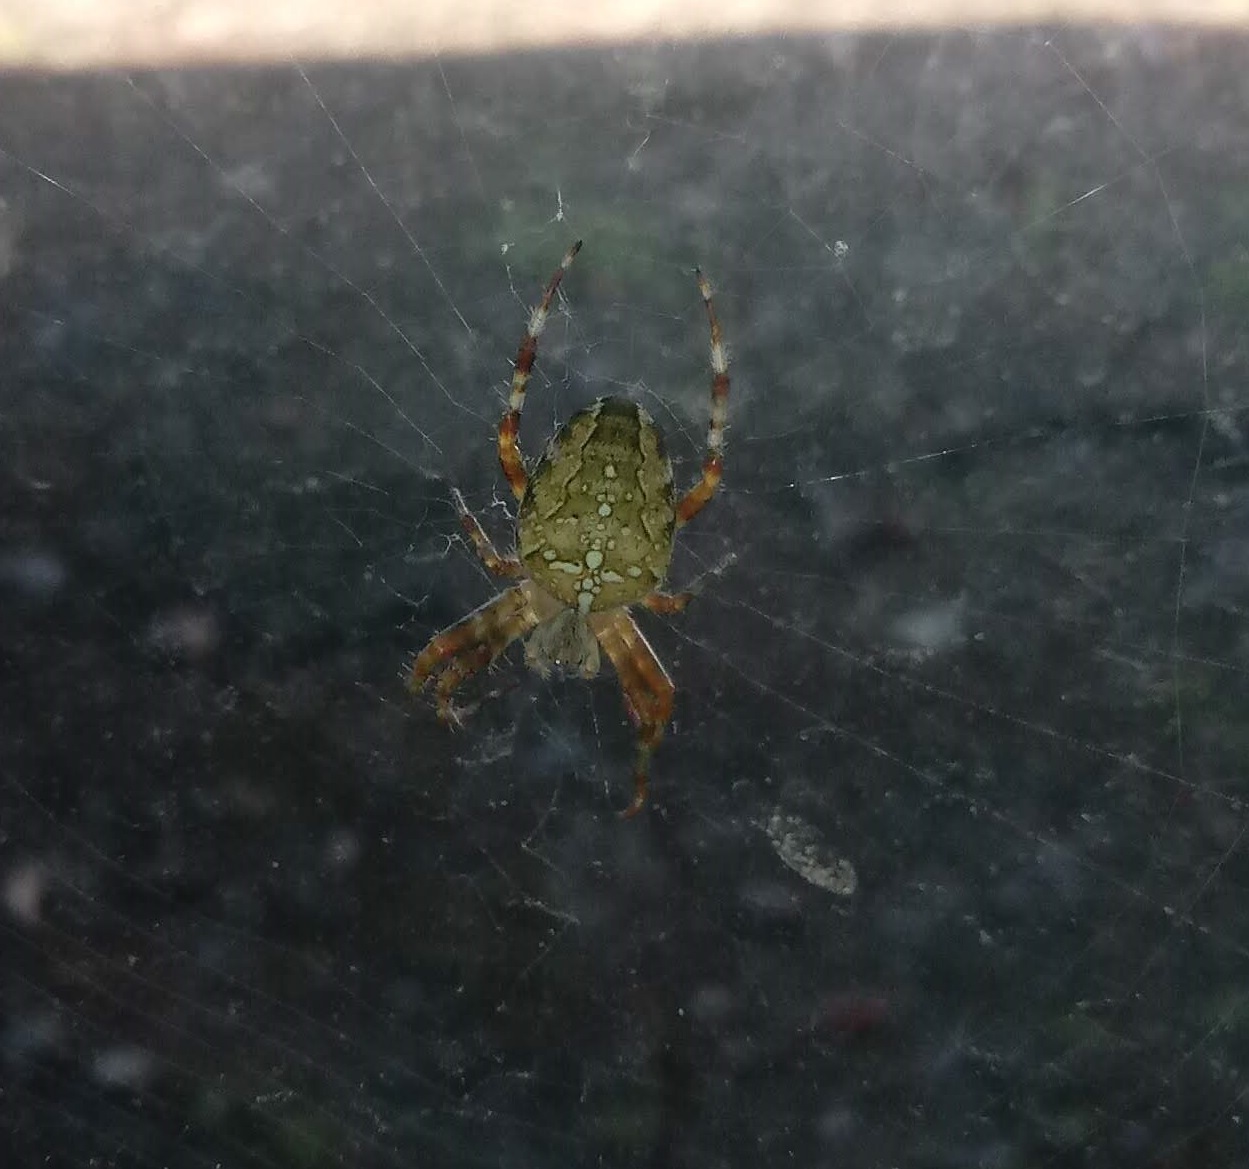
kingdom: Animalia
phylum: Arthropoda
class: Arachnida
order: Araneae
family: Araneidae
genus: Araneus
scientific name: Araneus diadematus
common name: Cross orbweaver
